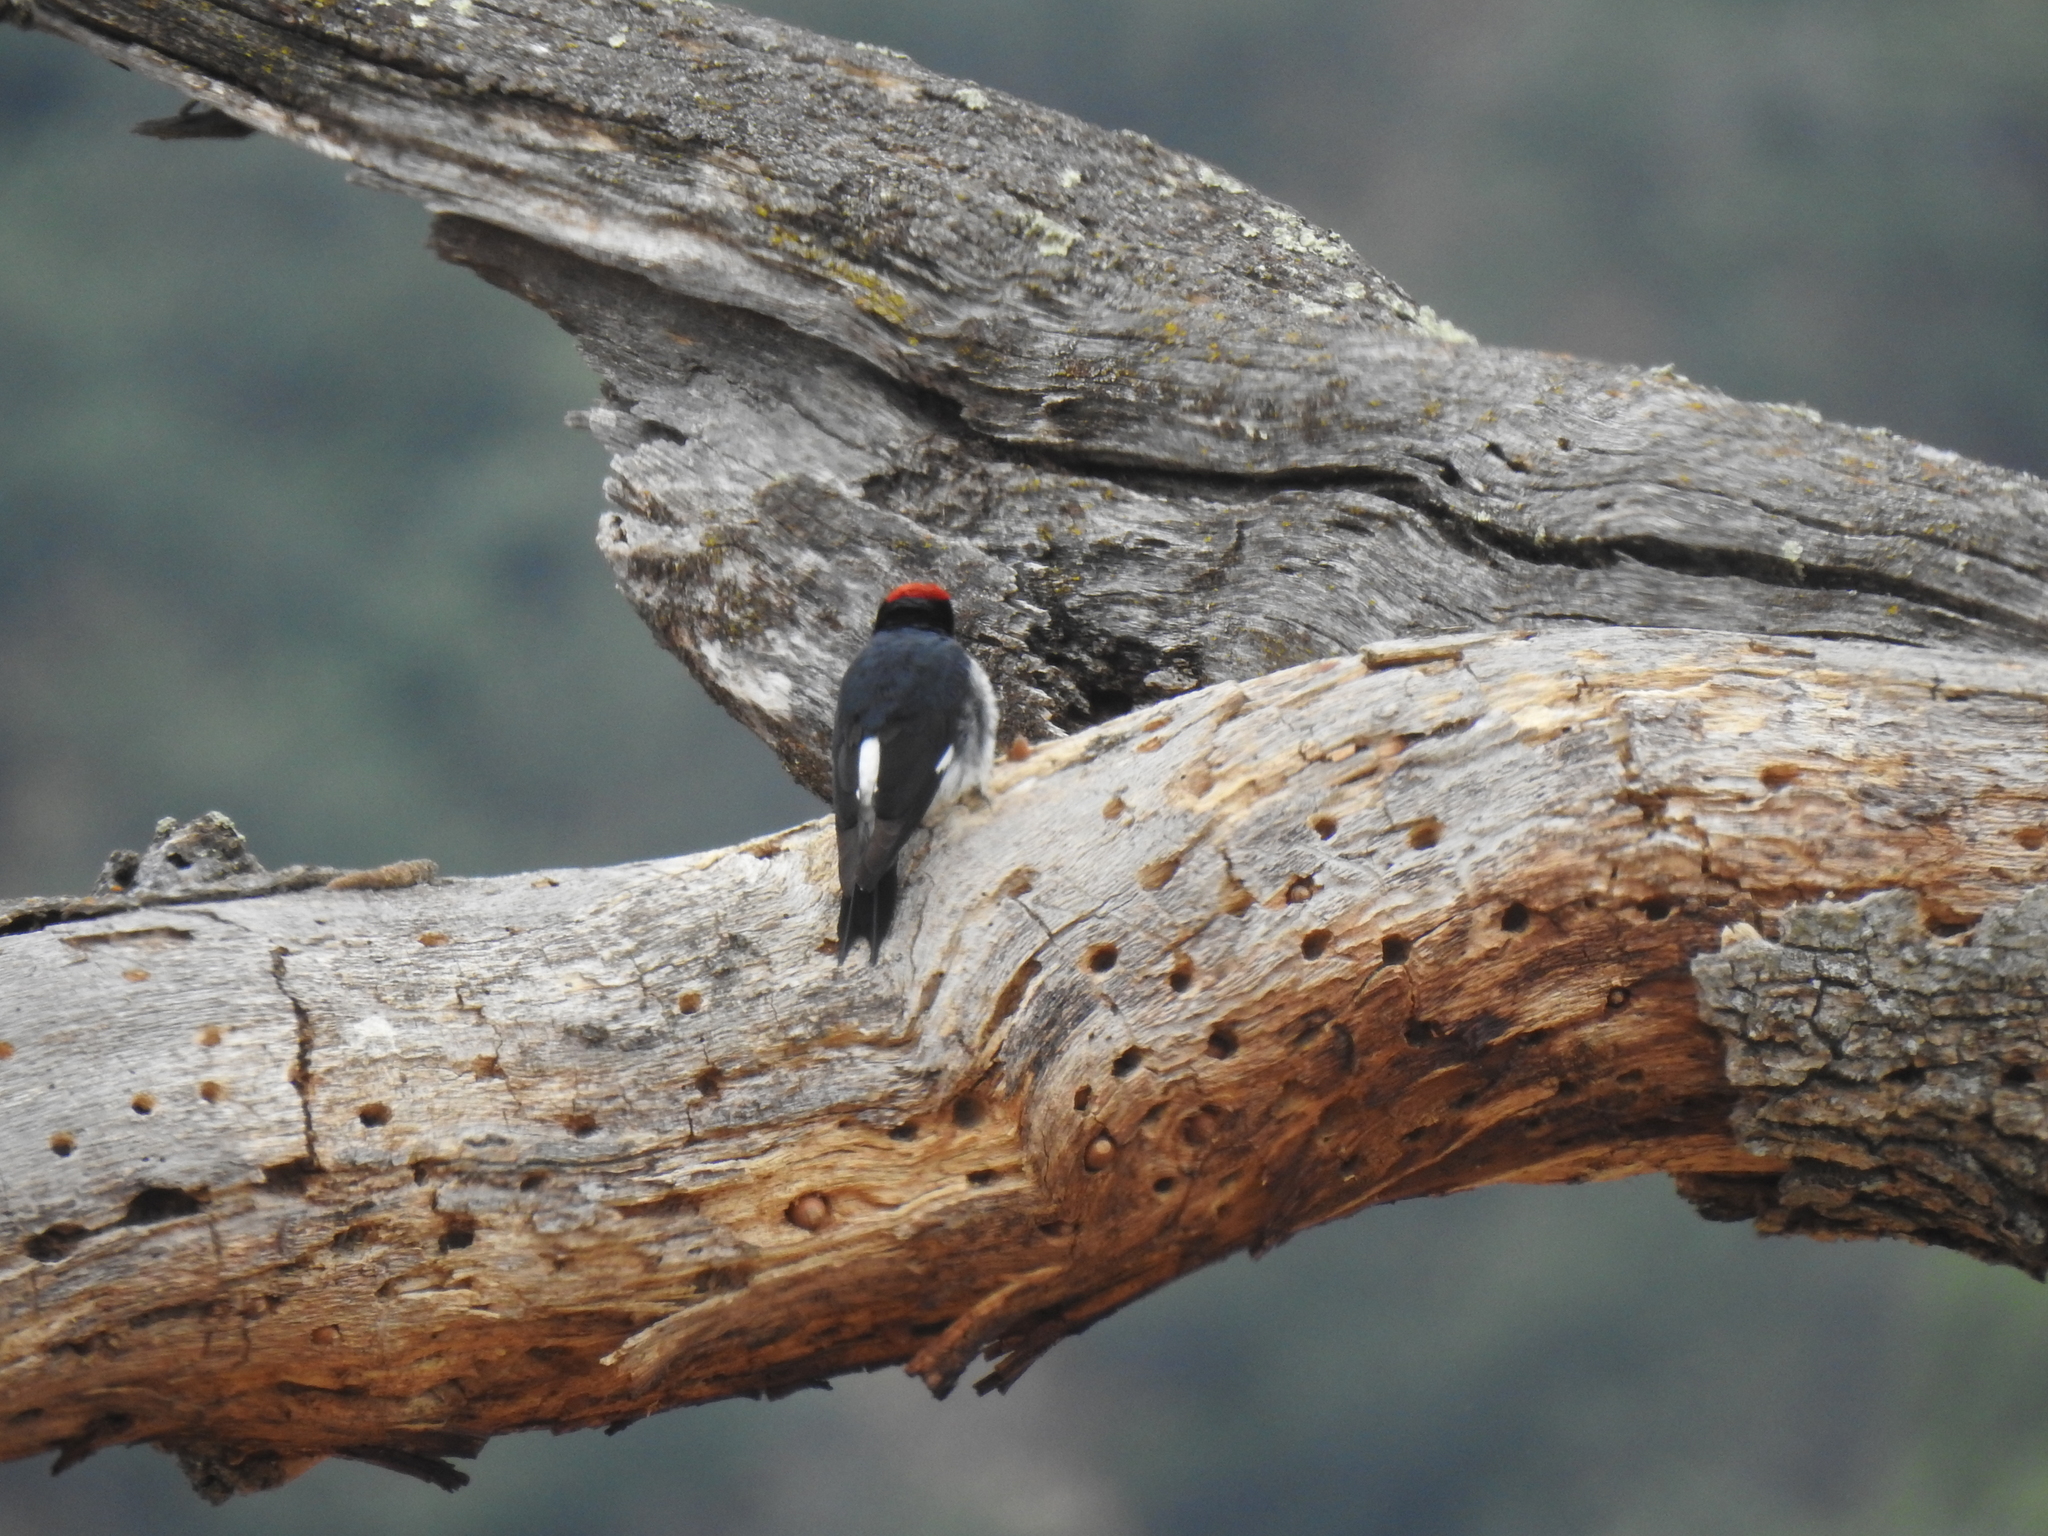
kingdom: Animalia
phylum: Chordata
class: Aves
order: Piciformes
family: Picidae
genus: Melanerpes
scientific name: Melanerpes formicivorus
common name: Acorn woodpecker
